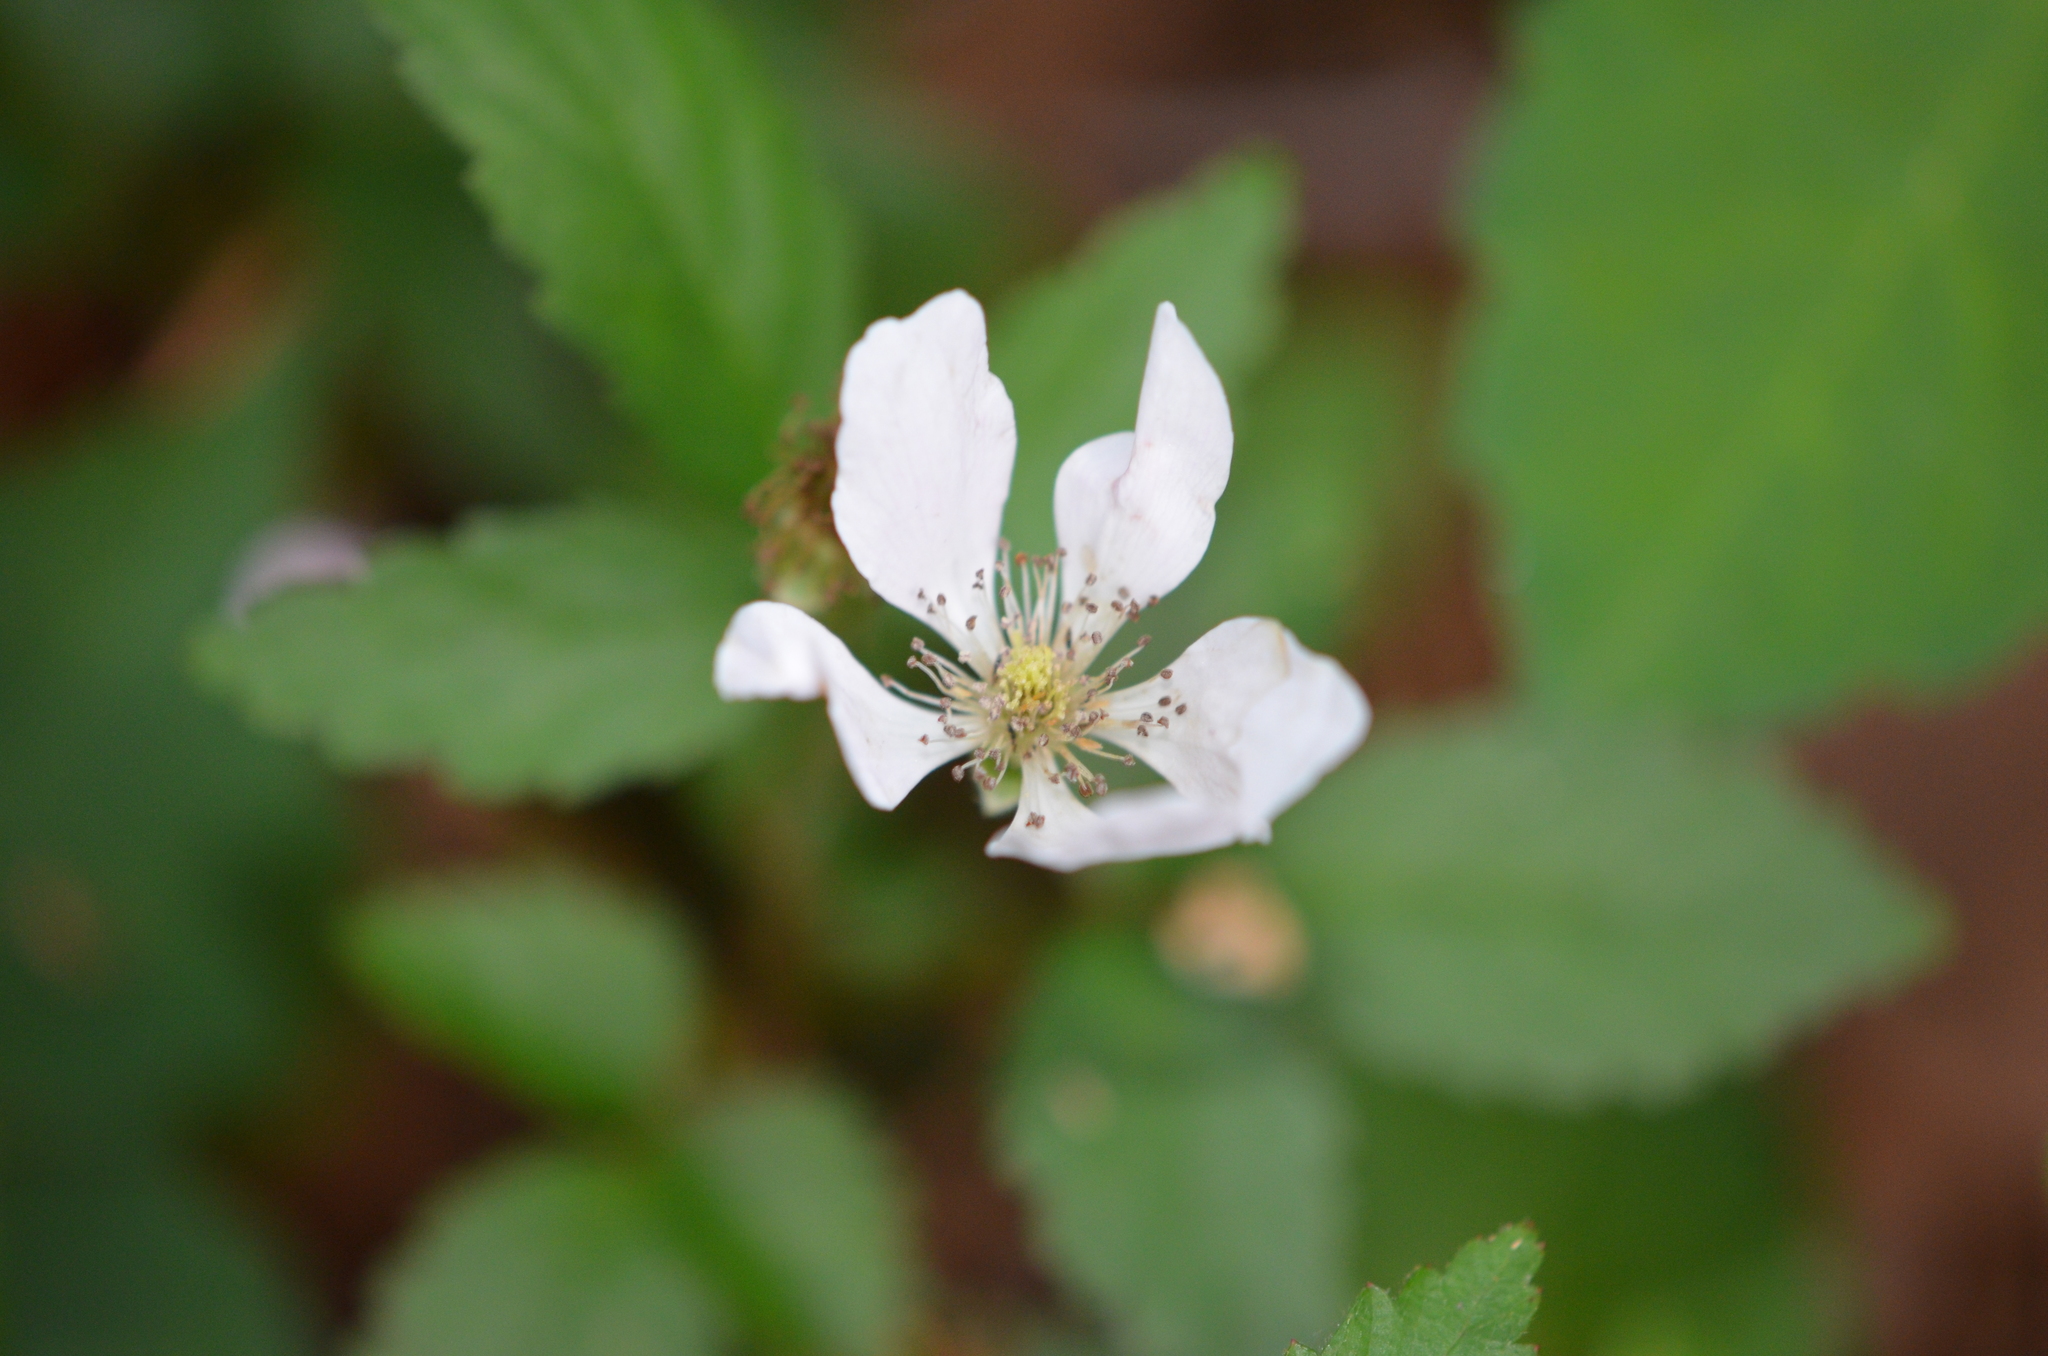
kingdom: Plantae
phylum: Tracheophyta
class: Magnoliopsida
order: Rosales
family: Rosaceae
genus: Rubus
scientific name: Rubus flagellaris
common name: American dewberry
